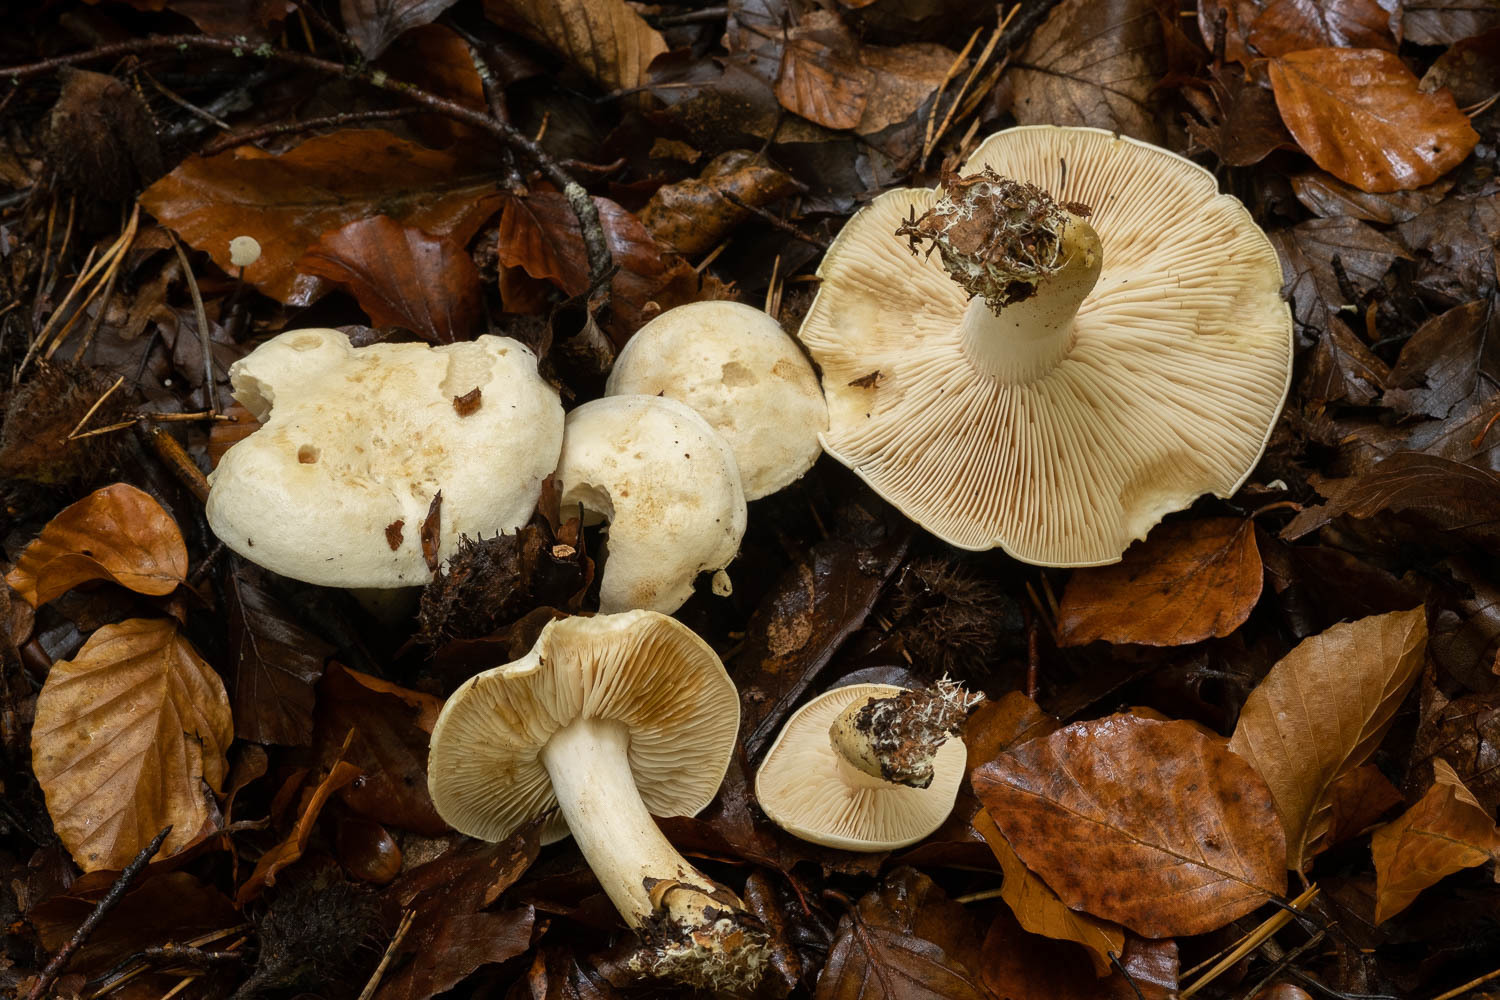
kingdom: Fungi
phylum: Basidiomycota
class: Agaricomycetes
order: Agaricales
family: Tricholomataceae
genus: Tricholoma
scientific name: Tricholoma sulphurescens
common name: Yellow staining knight
